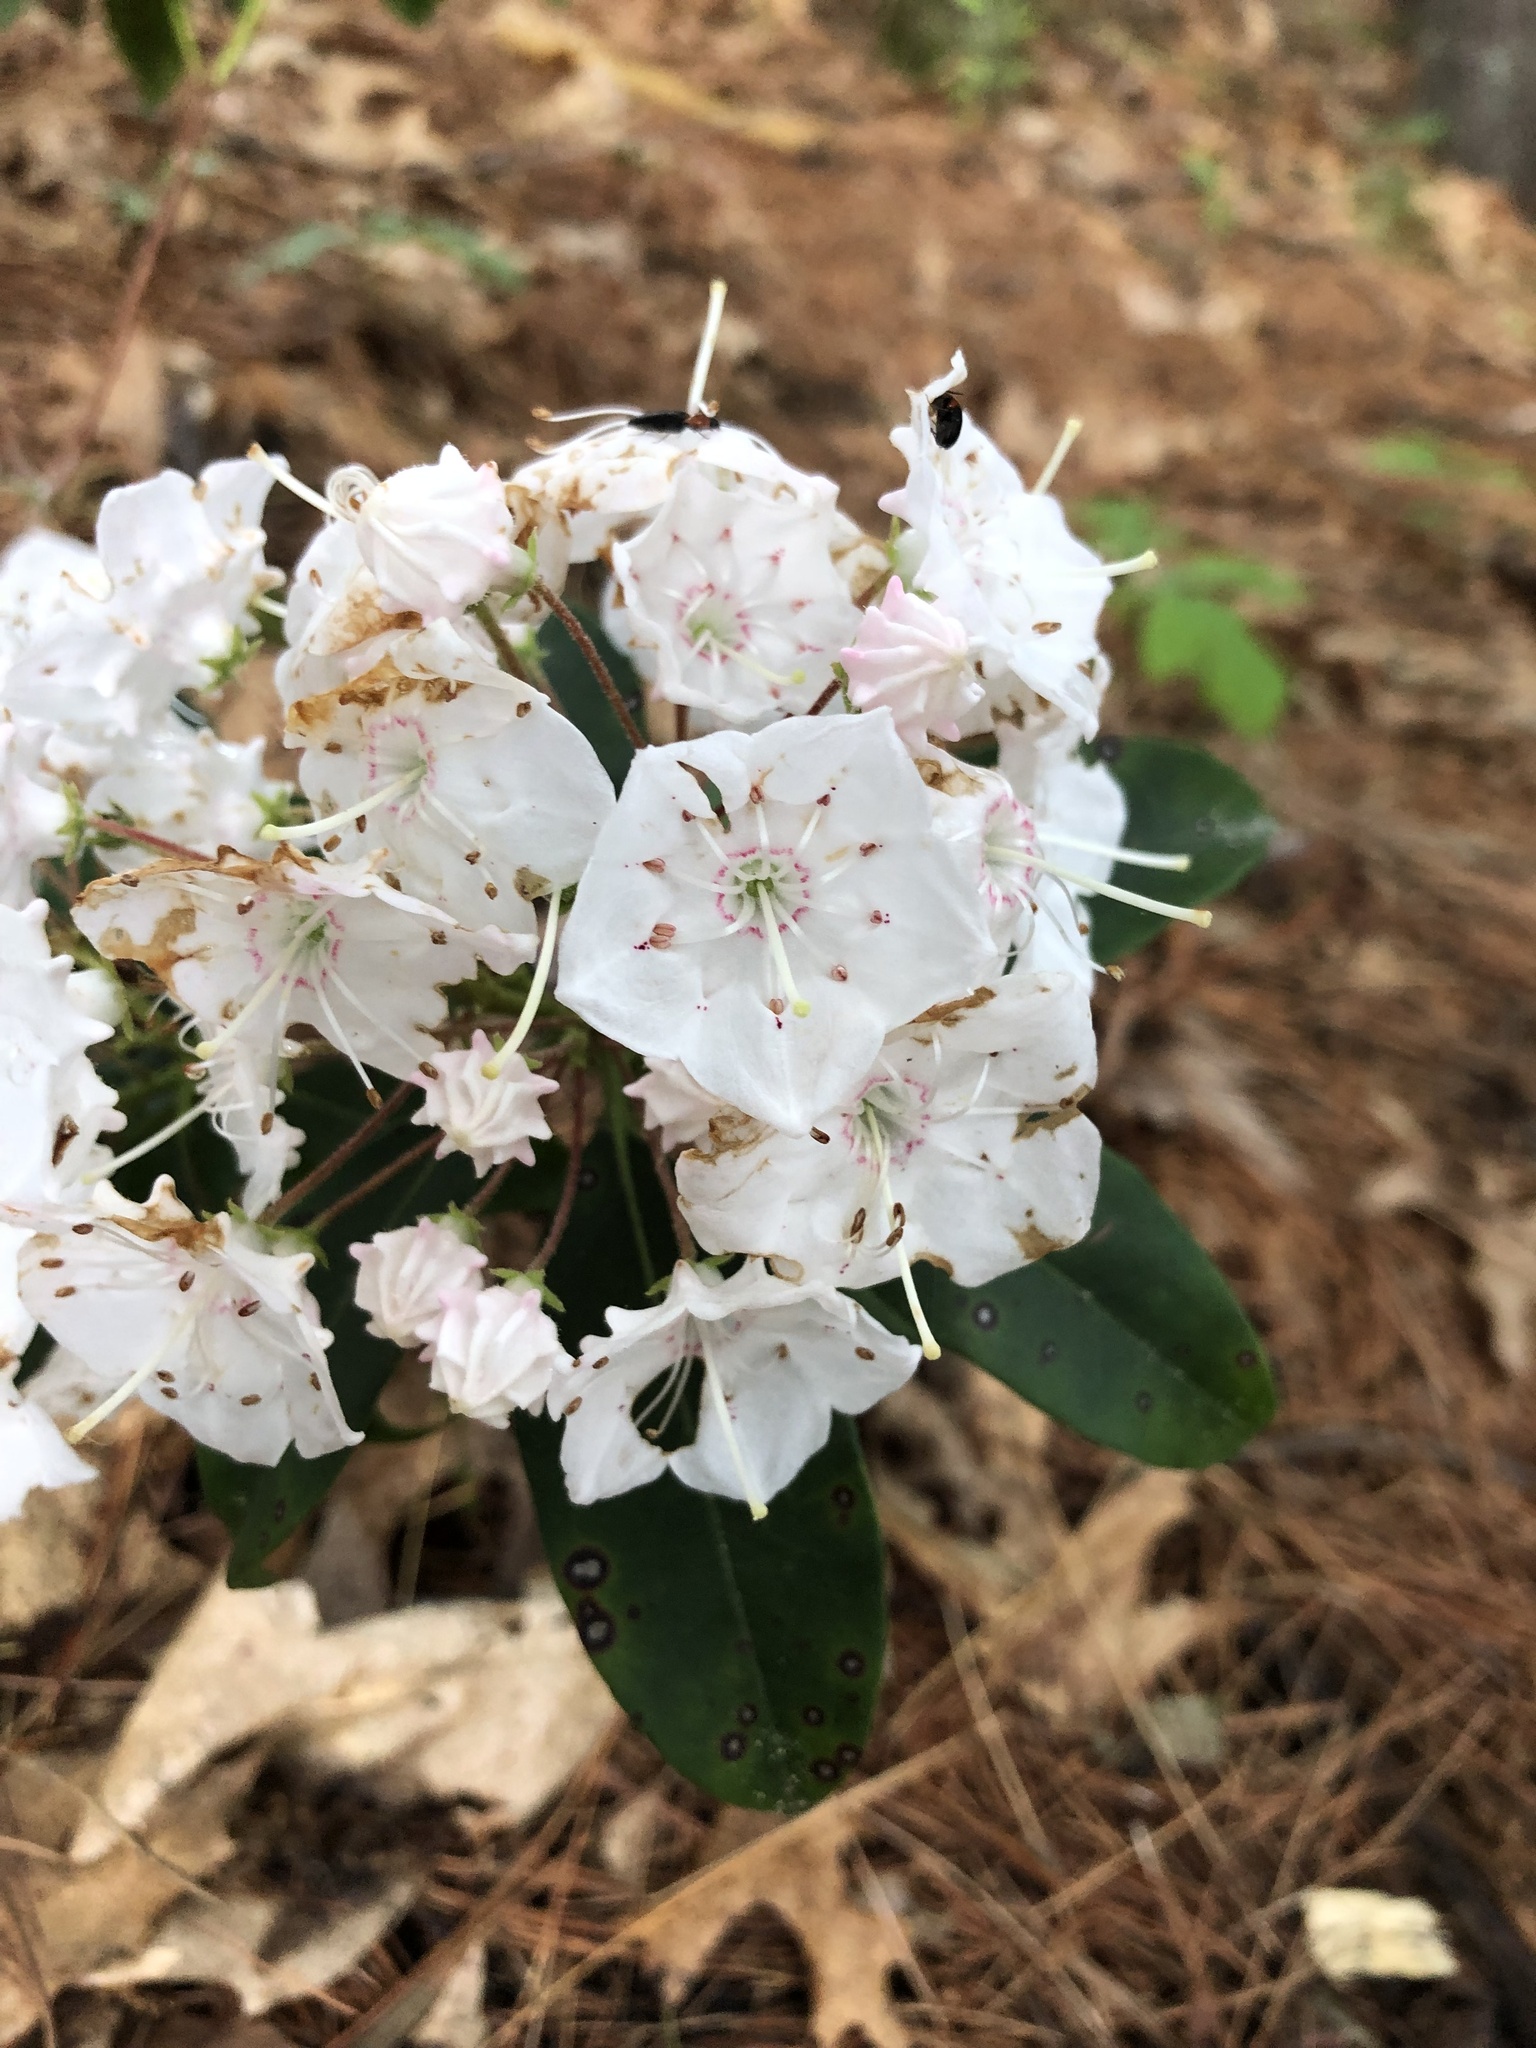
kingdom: Plantae
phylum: Tracheophyta
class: Magnoliopsida
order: Ericales
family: Ericaceae
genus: Kalmia
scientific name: Kalmia latifolia
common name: Mountain-laurel
